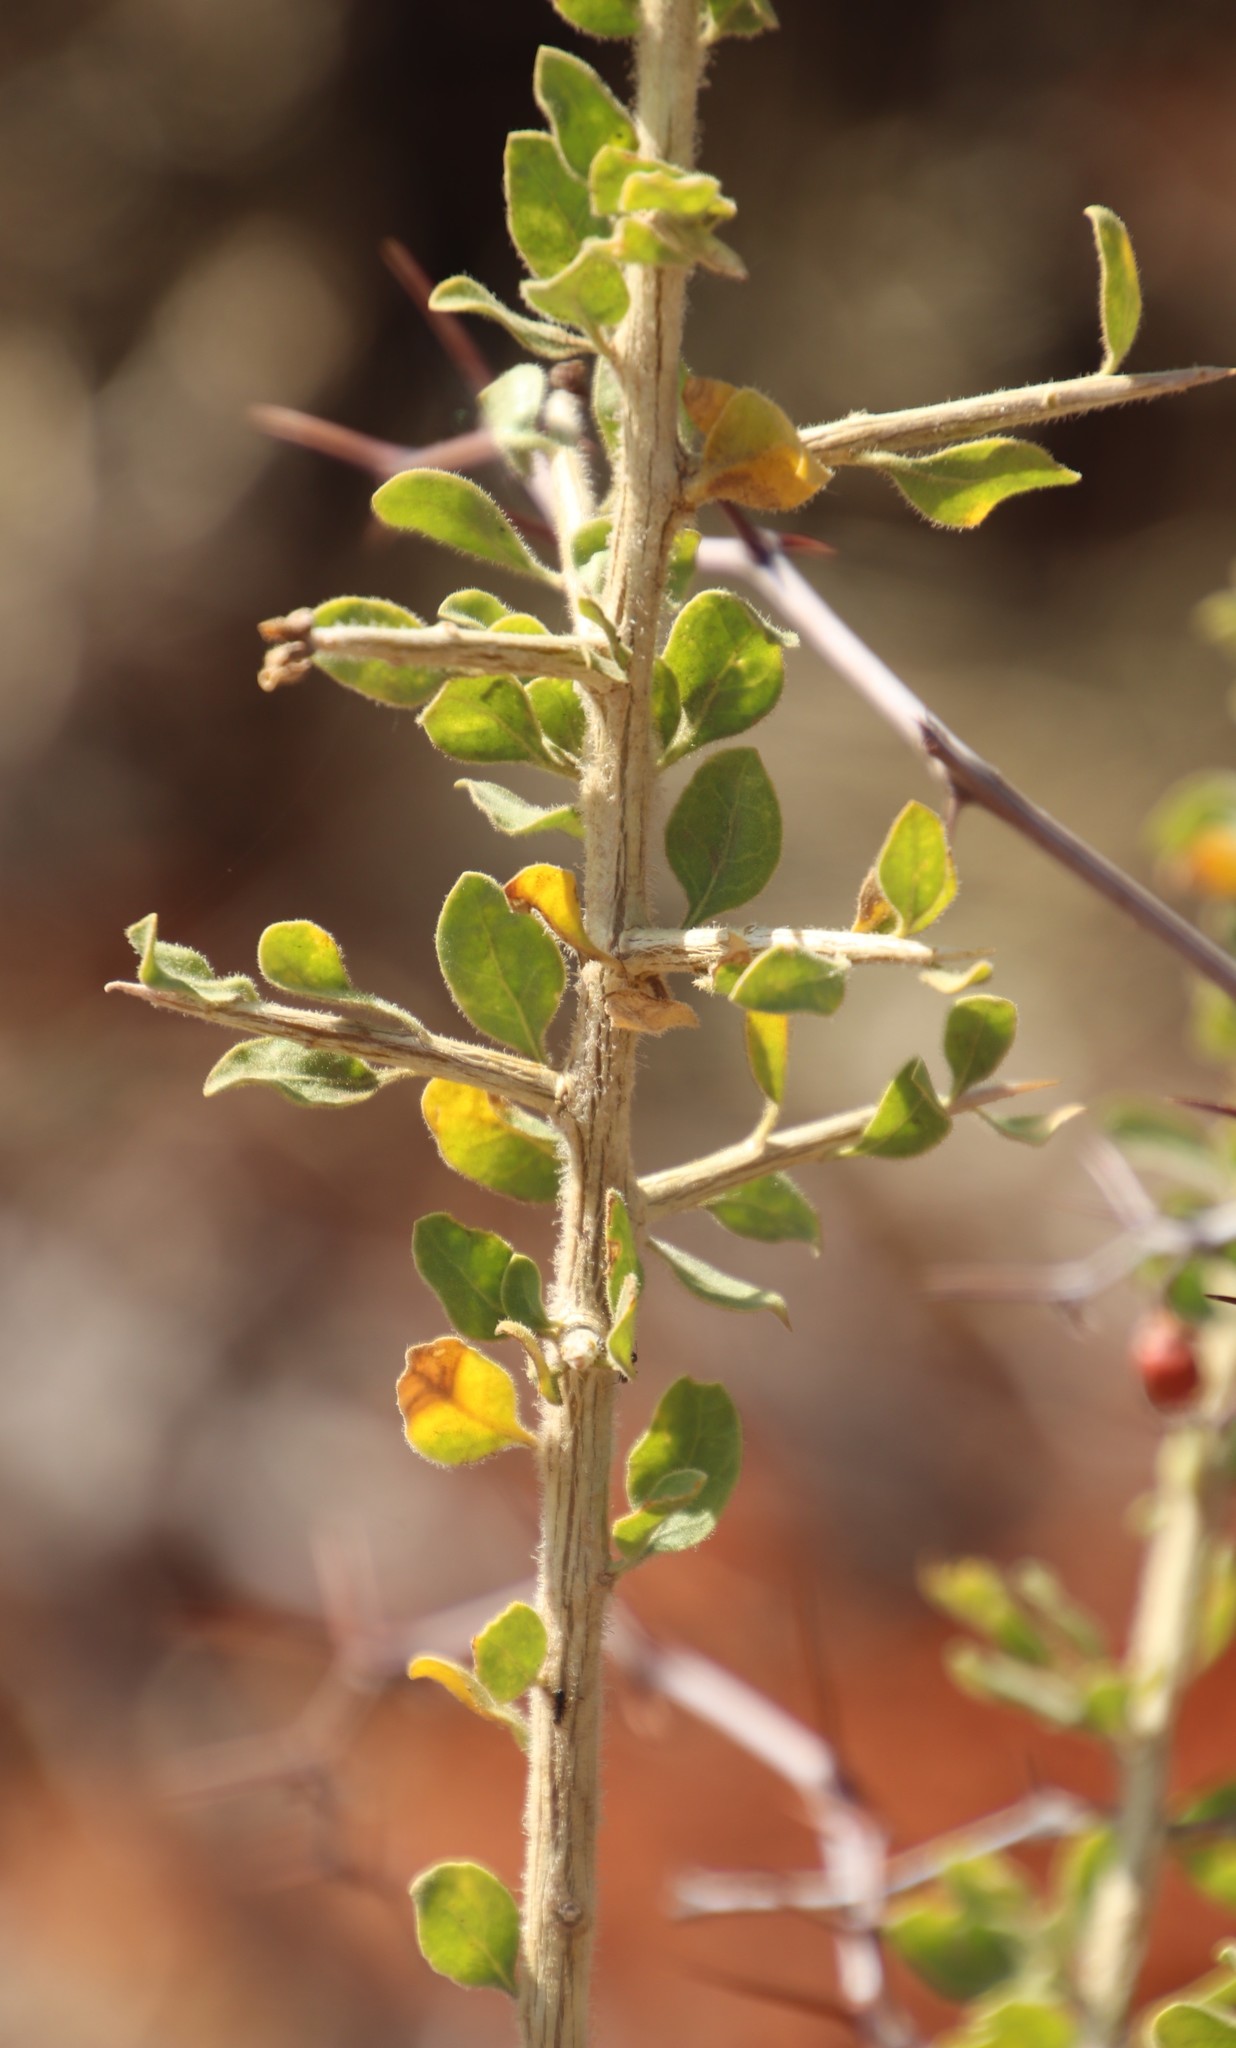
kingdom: Plantae
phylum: Tracheophyta
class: Magnoliopsida
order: Solanales
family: Solanaceae
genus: Lycium
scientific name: Lycium hirsutum
